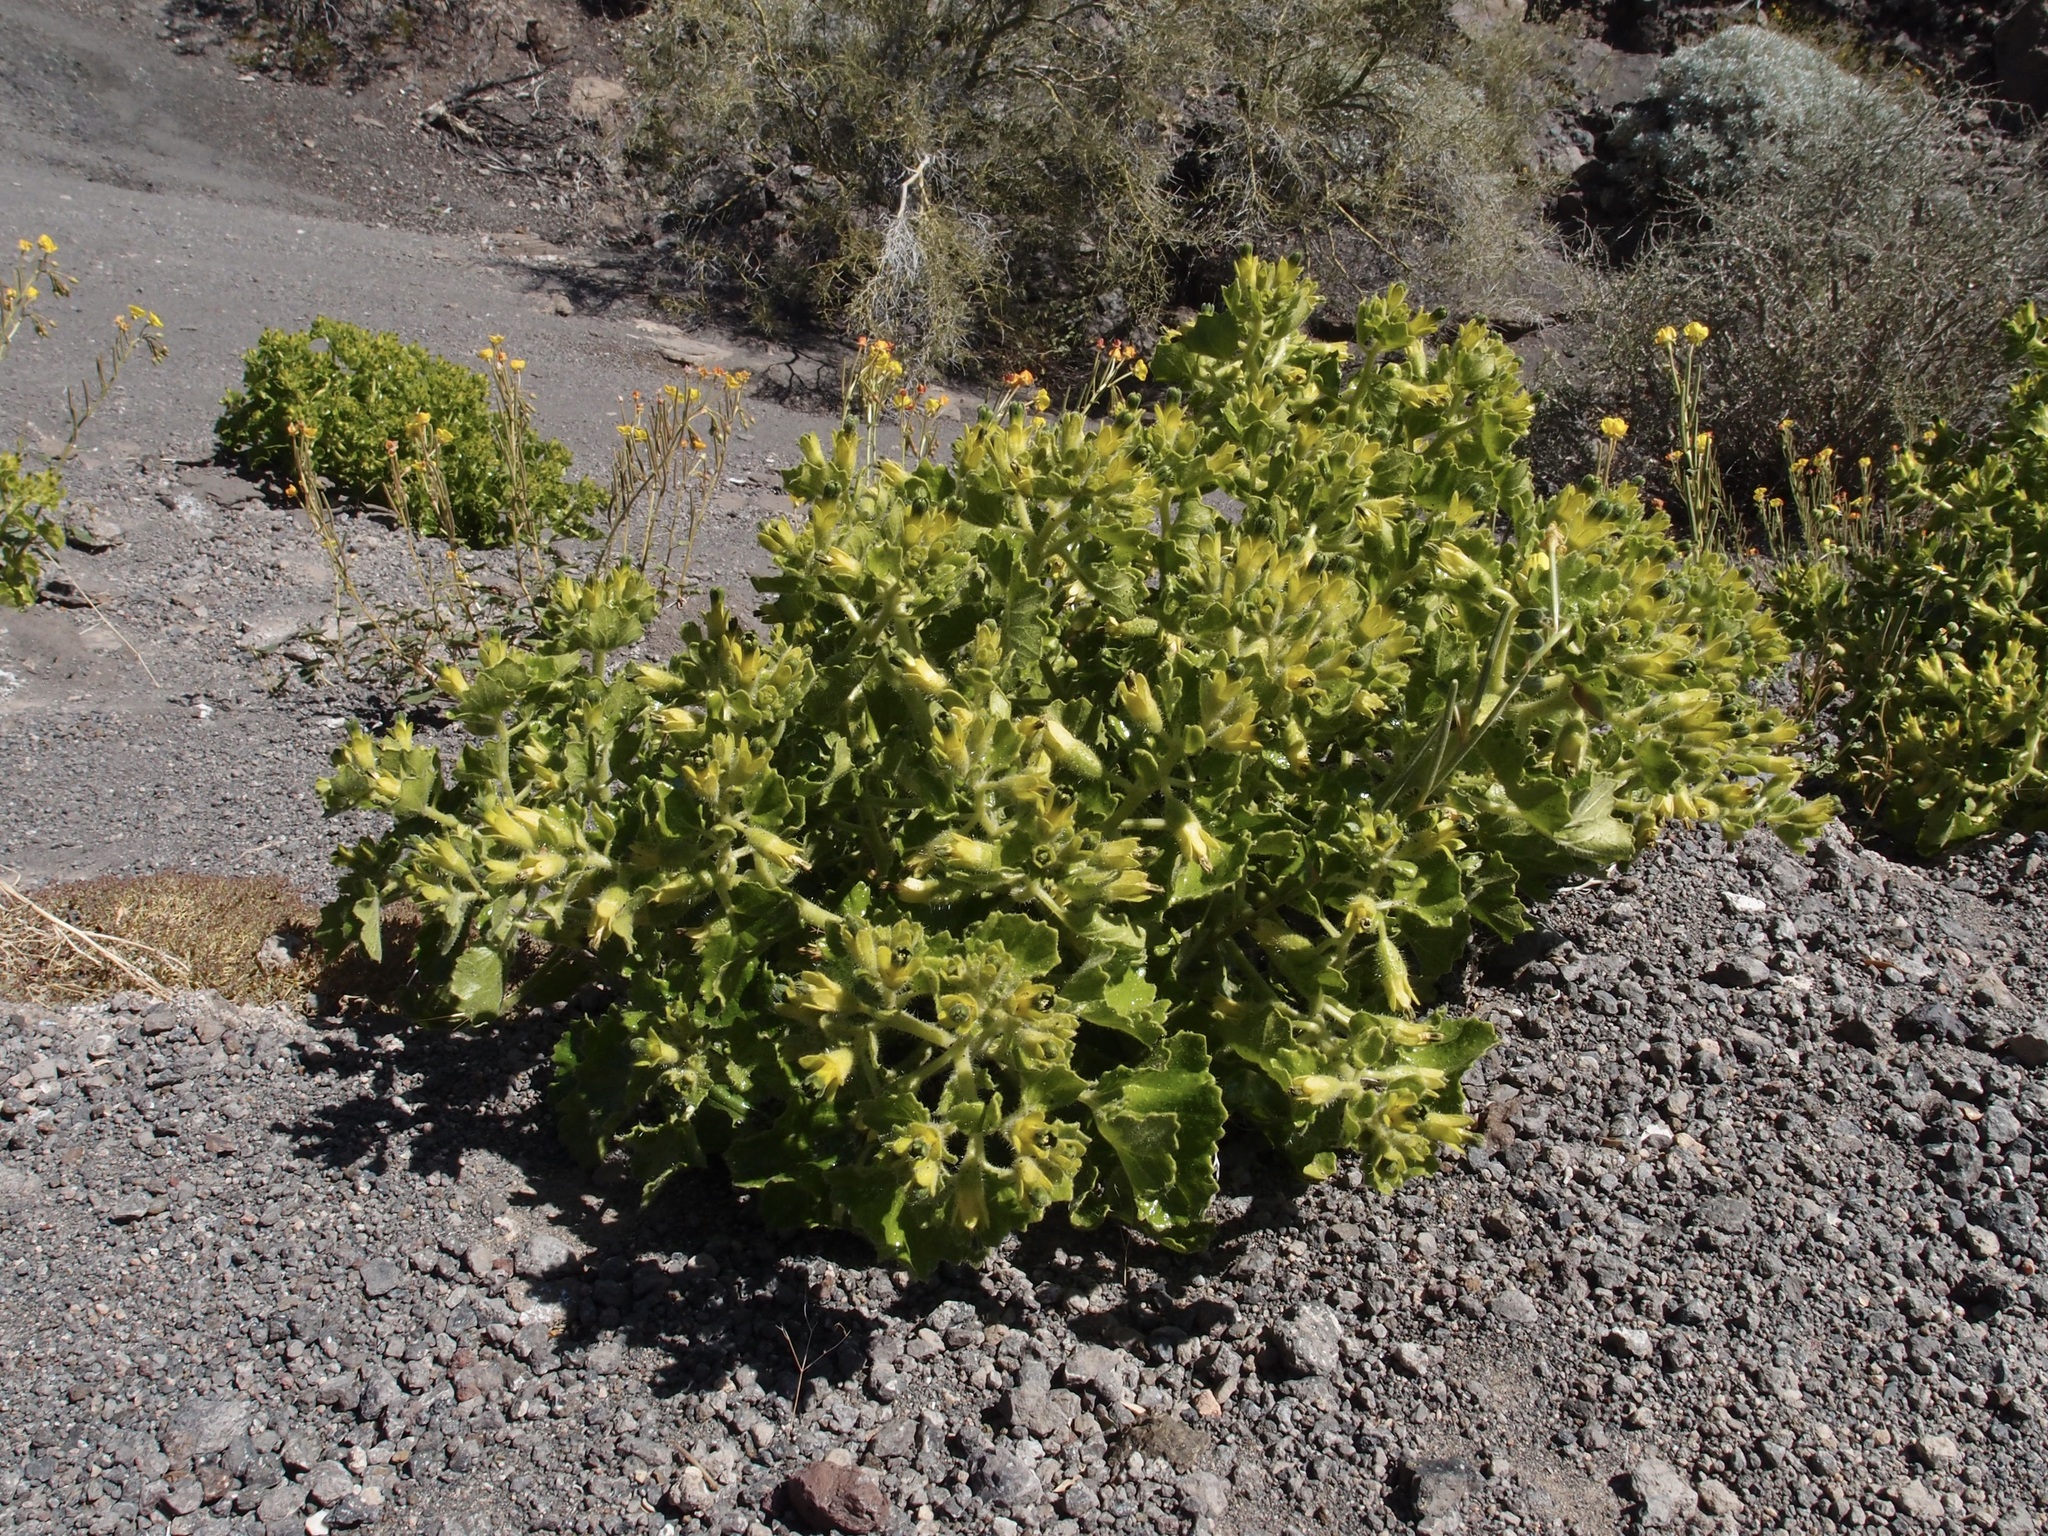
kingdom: Plantae
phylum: Tracheophyta
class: Magnoliopsida
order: Cornales
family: Loasaceae
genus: Eucnide
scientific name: Eucnide rupestris
